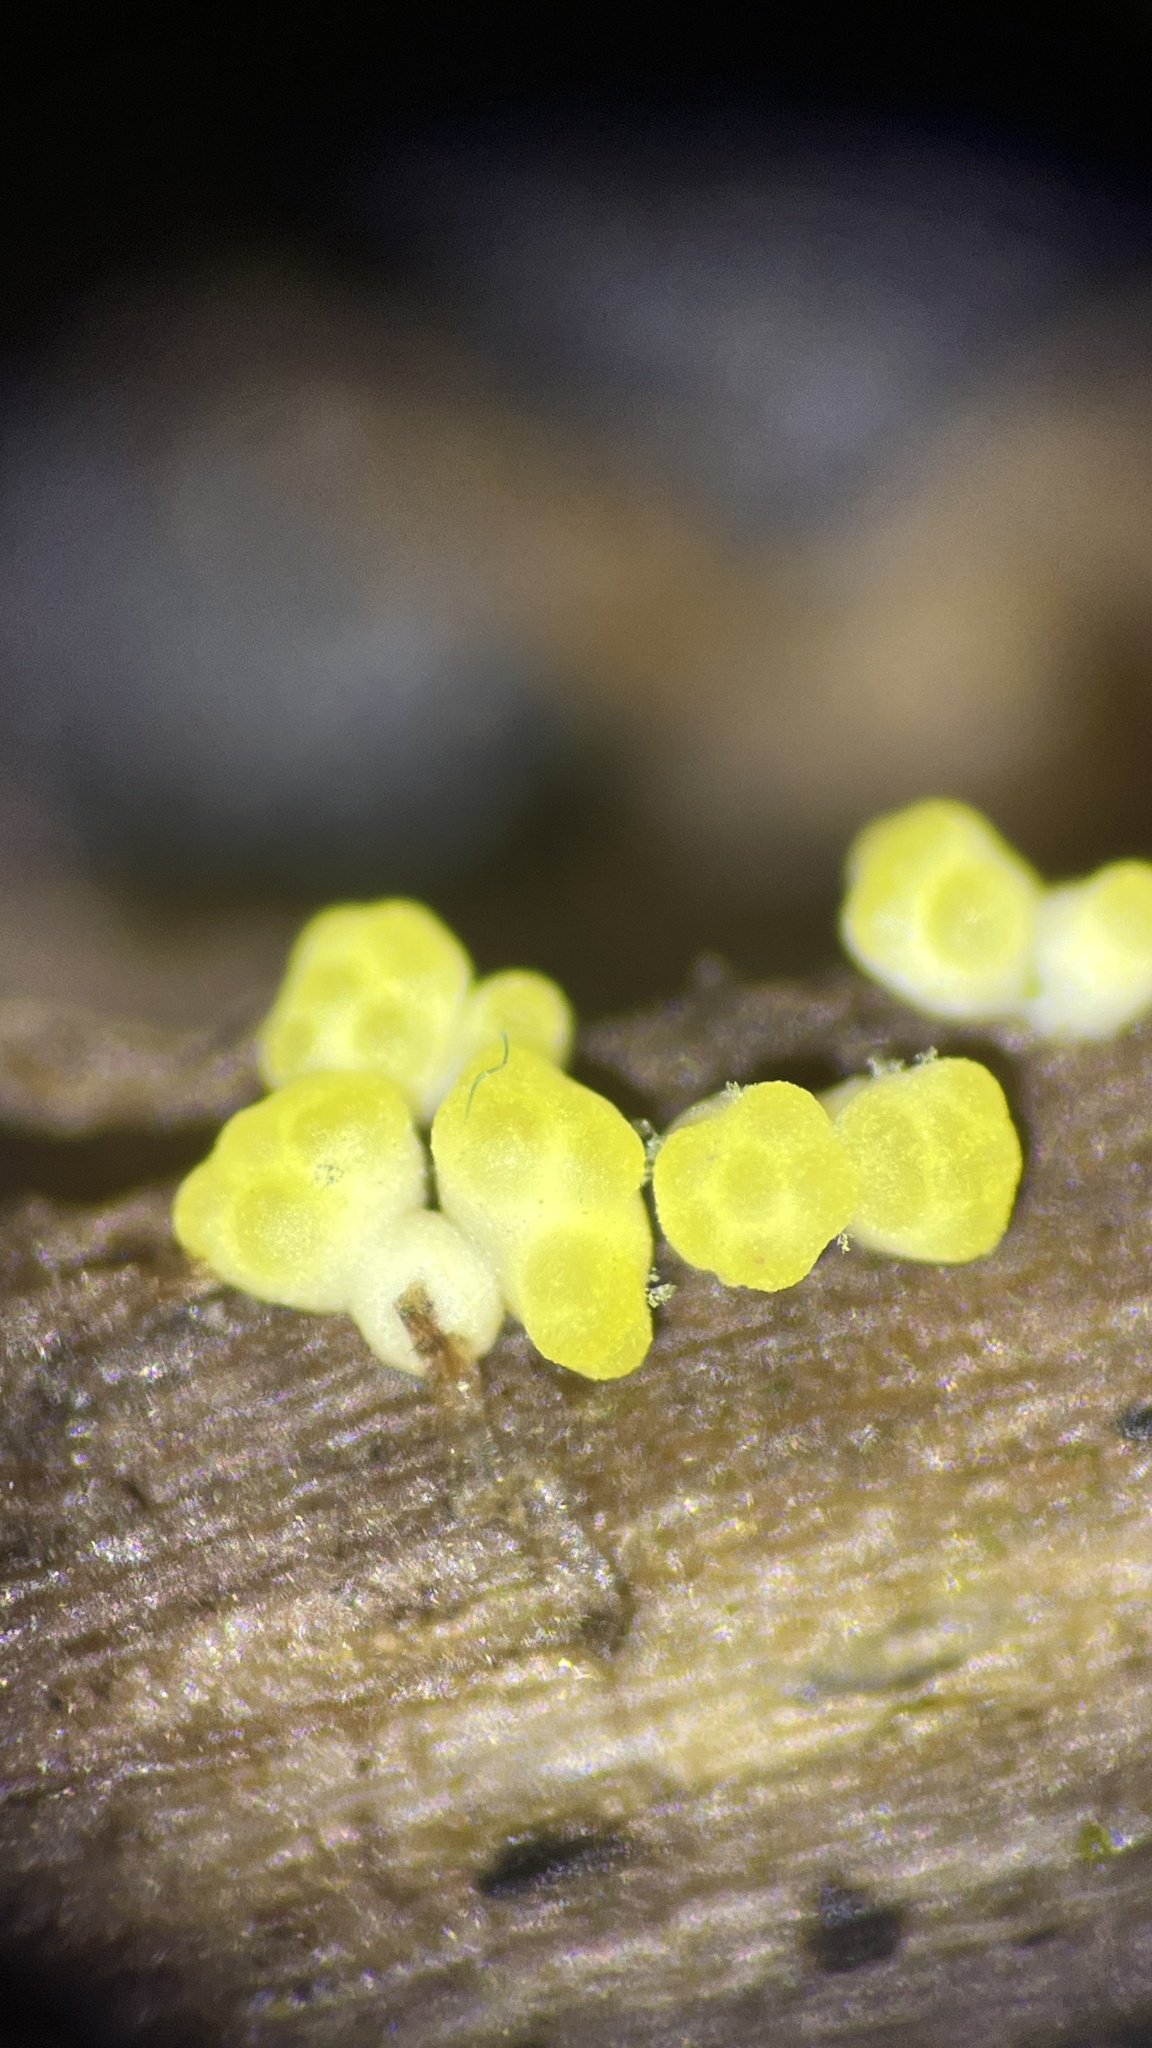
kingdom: Fungi
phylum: Ascomycota
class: Sordariomycetes
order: Hypocreales
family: Hypocreaceae
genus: Trichoderma
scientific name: Trichoderma gelatinosum
